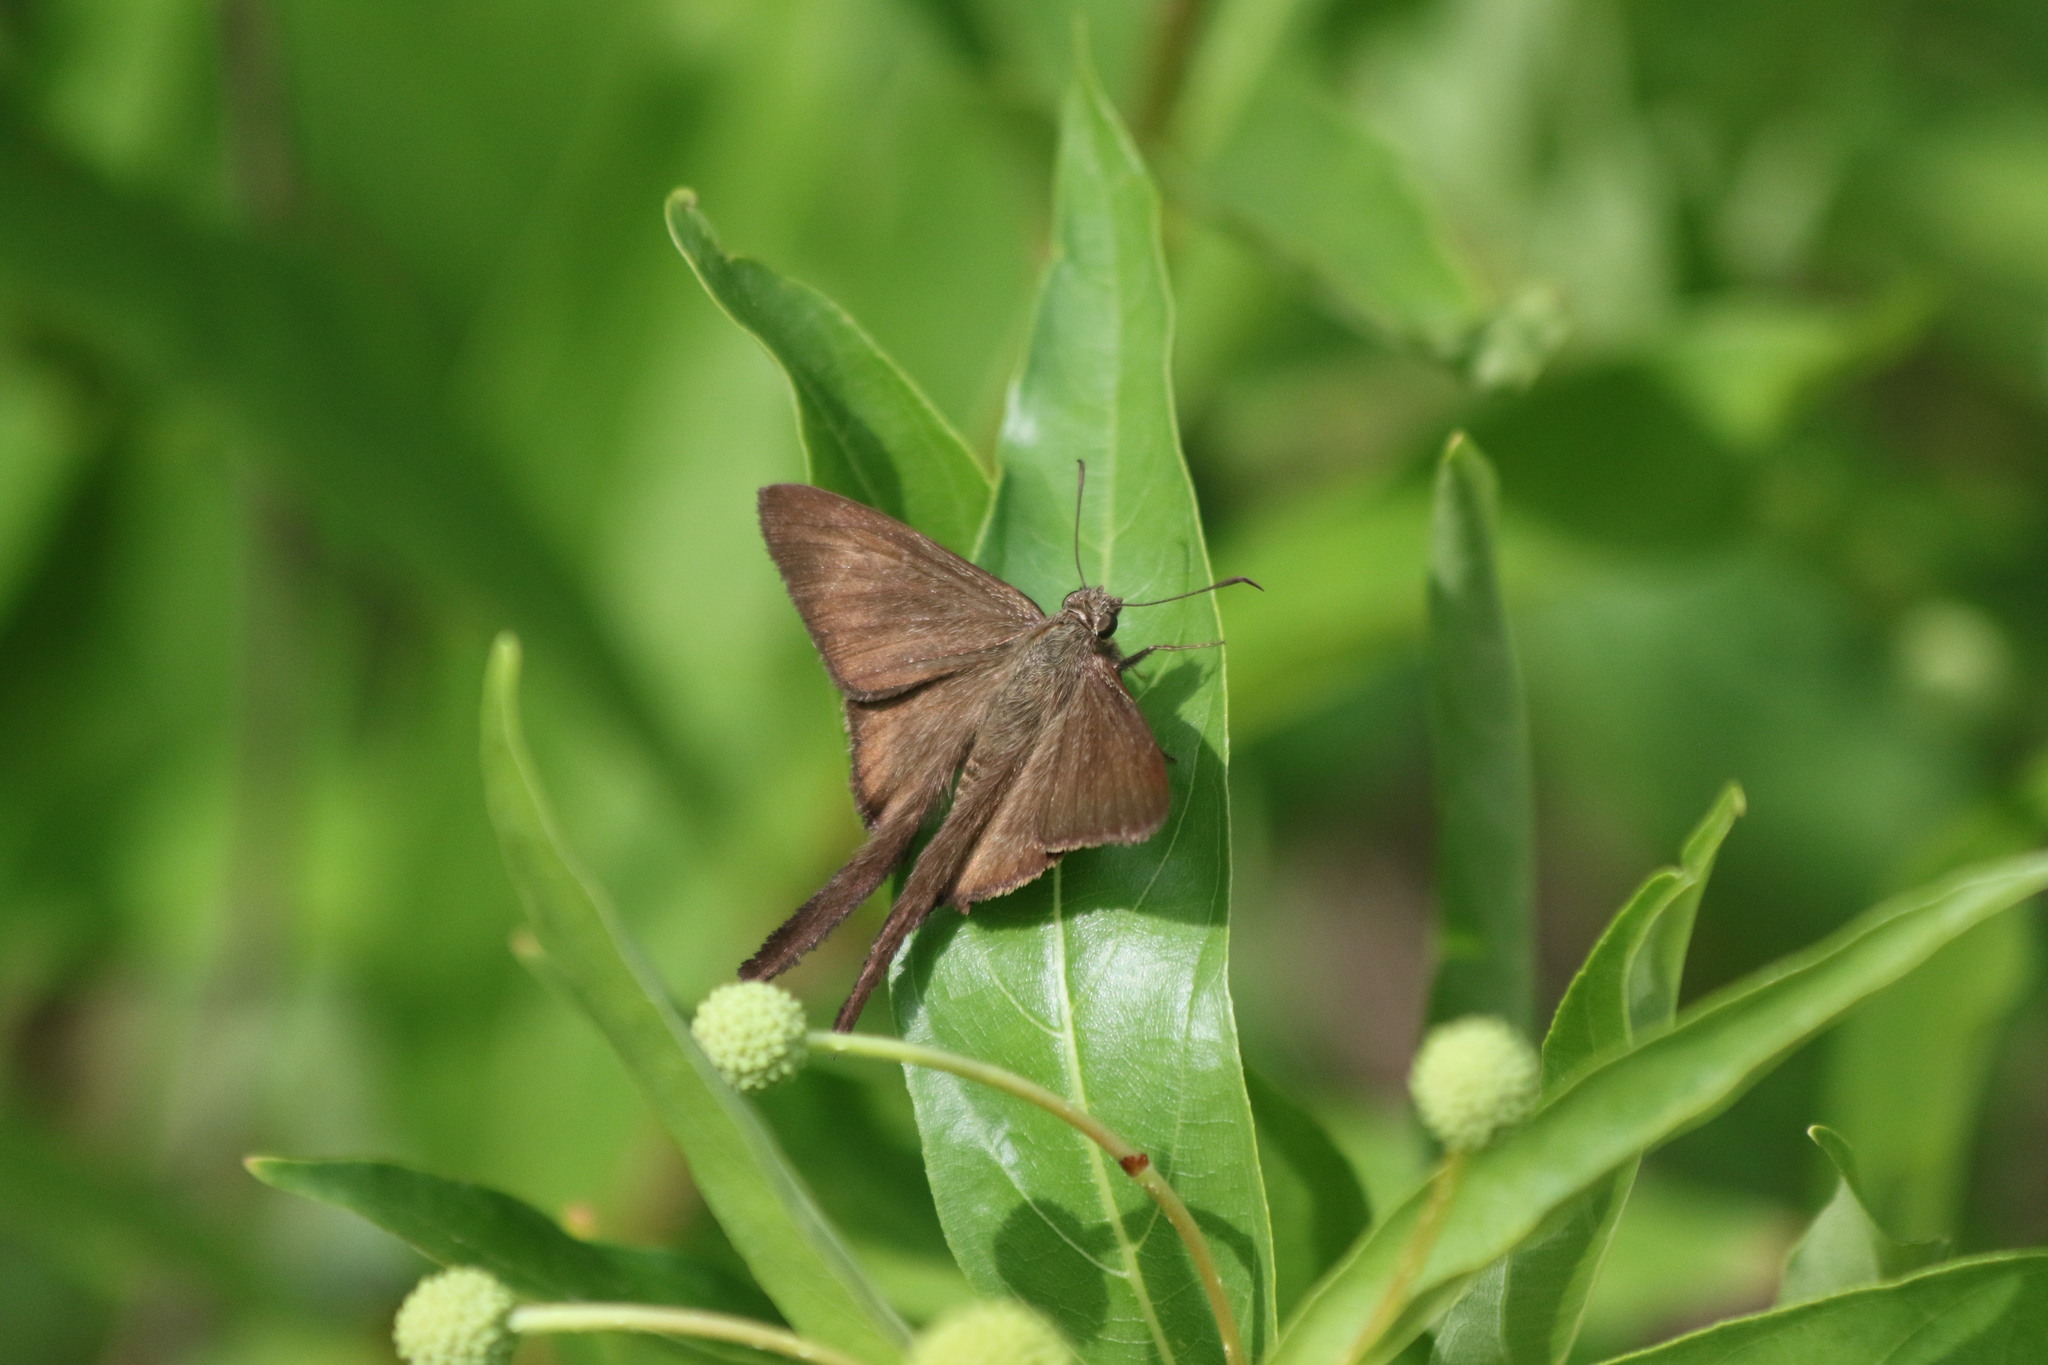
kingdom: Animalia
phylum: Arthropoda
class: Insecta
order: Lepidoptera
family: Hesperiidae
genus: Urbanus
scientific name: Urbanus procne
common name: Brown longtail
